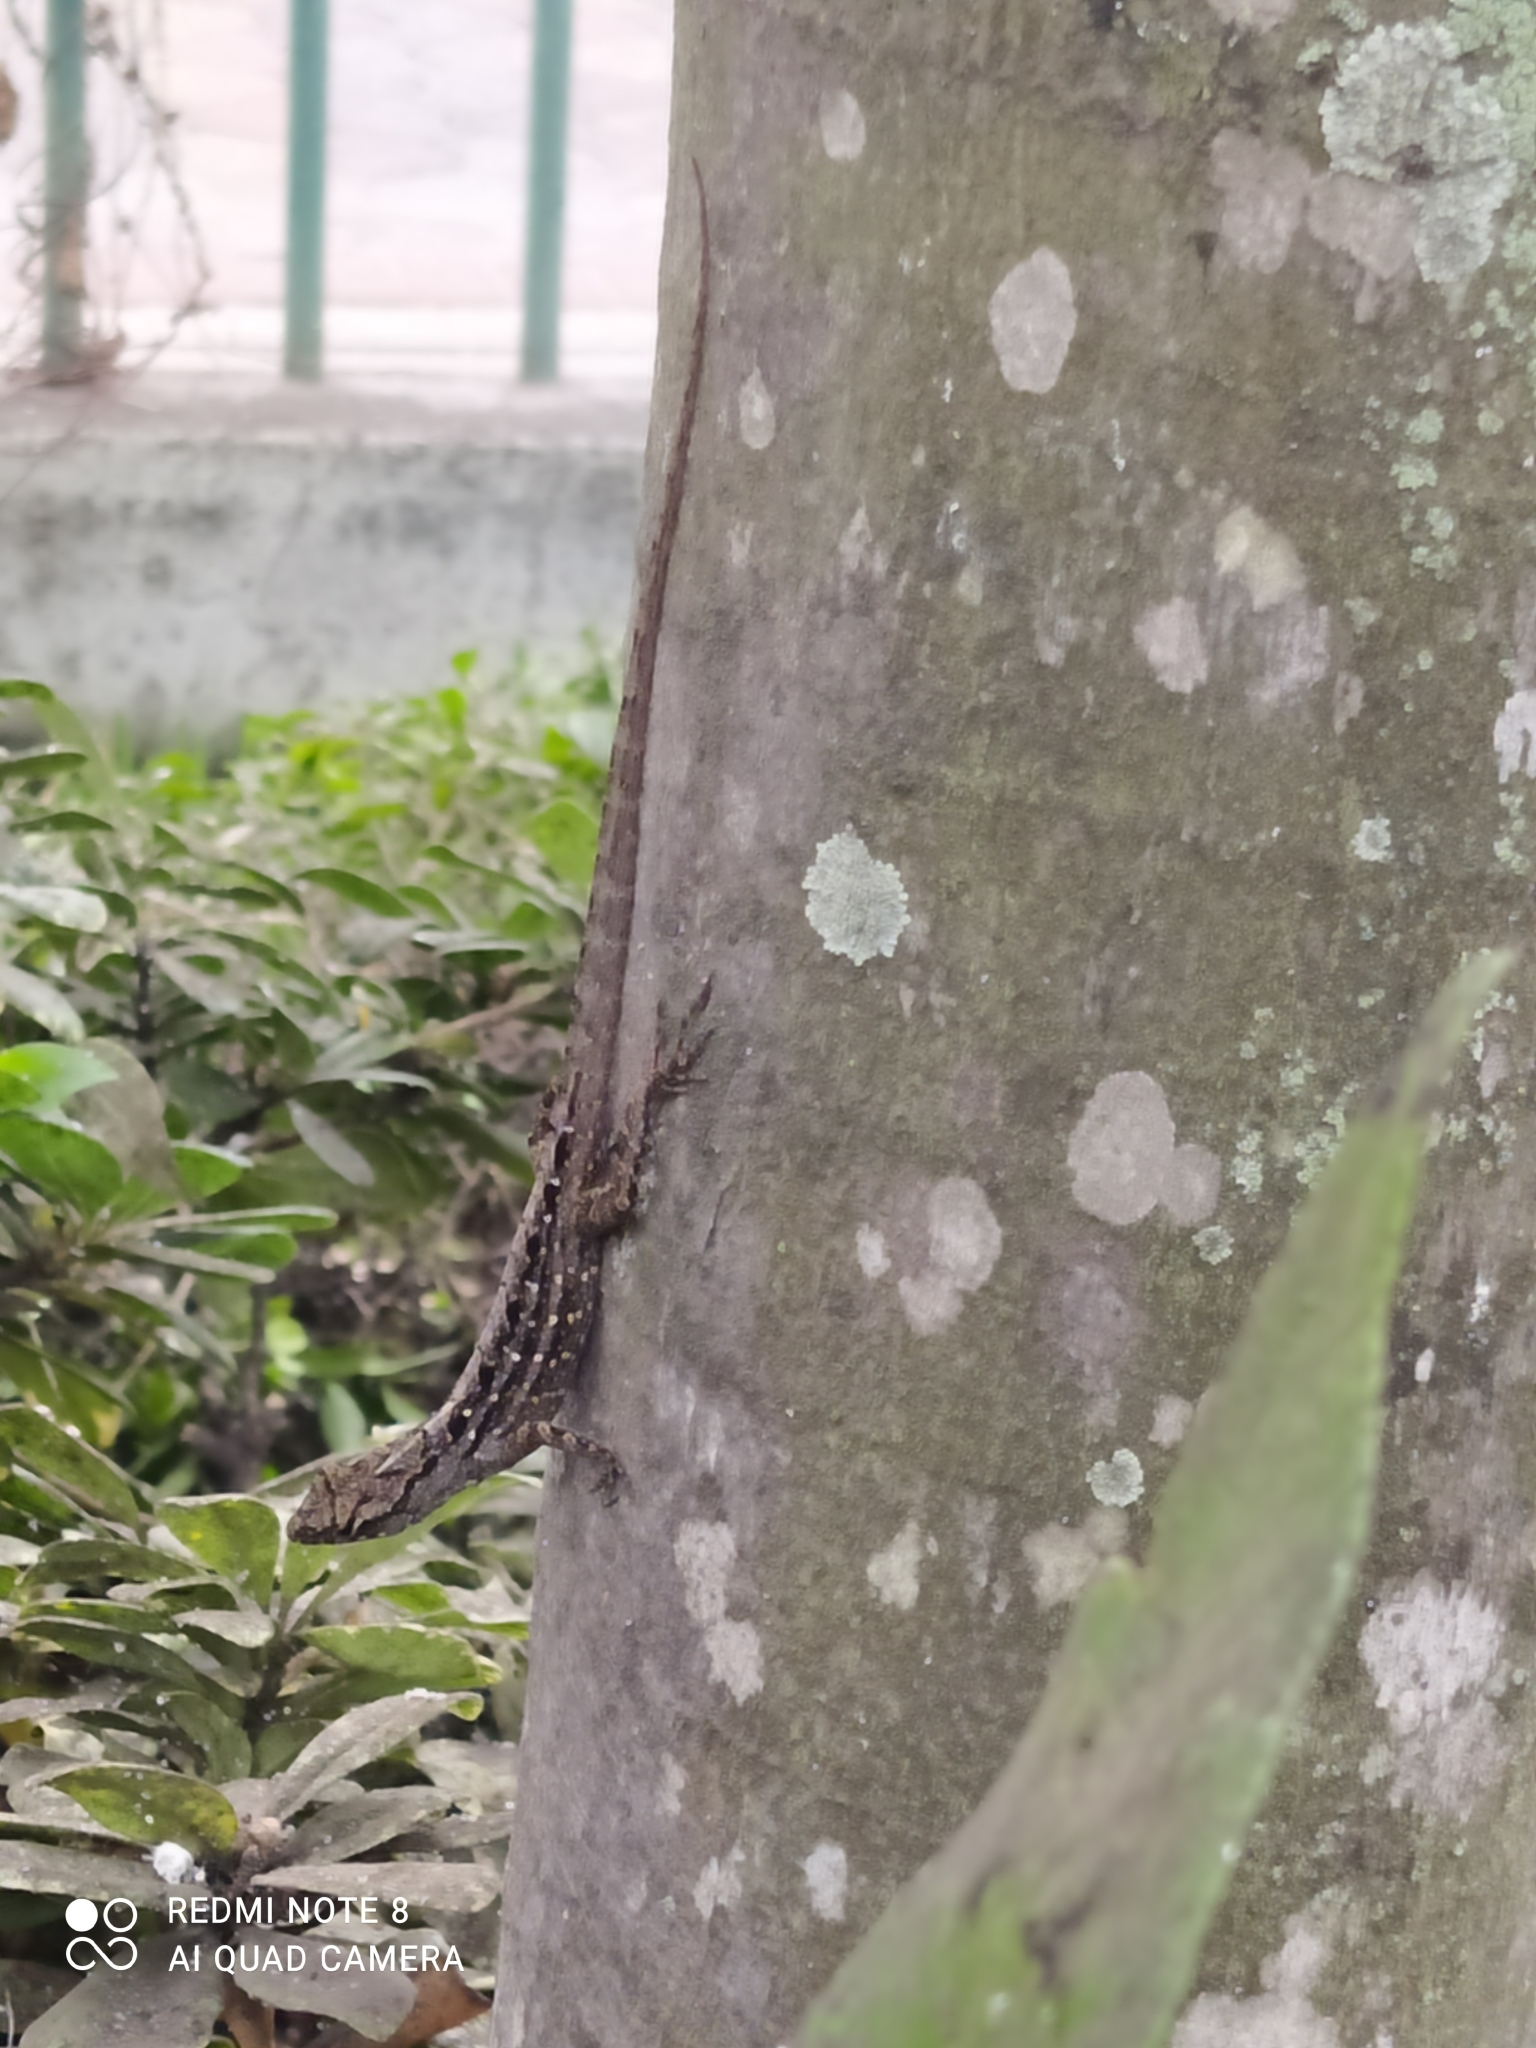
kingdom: Animalia
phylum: Chordata
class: Squamata
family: Dactyloidae
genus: Anolis
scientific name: Anolis sagrei
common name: Brown anole
